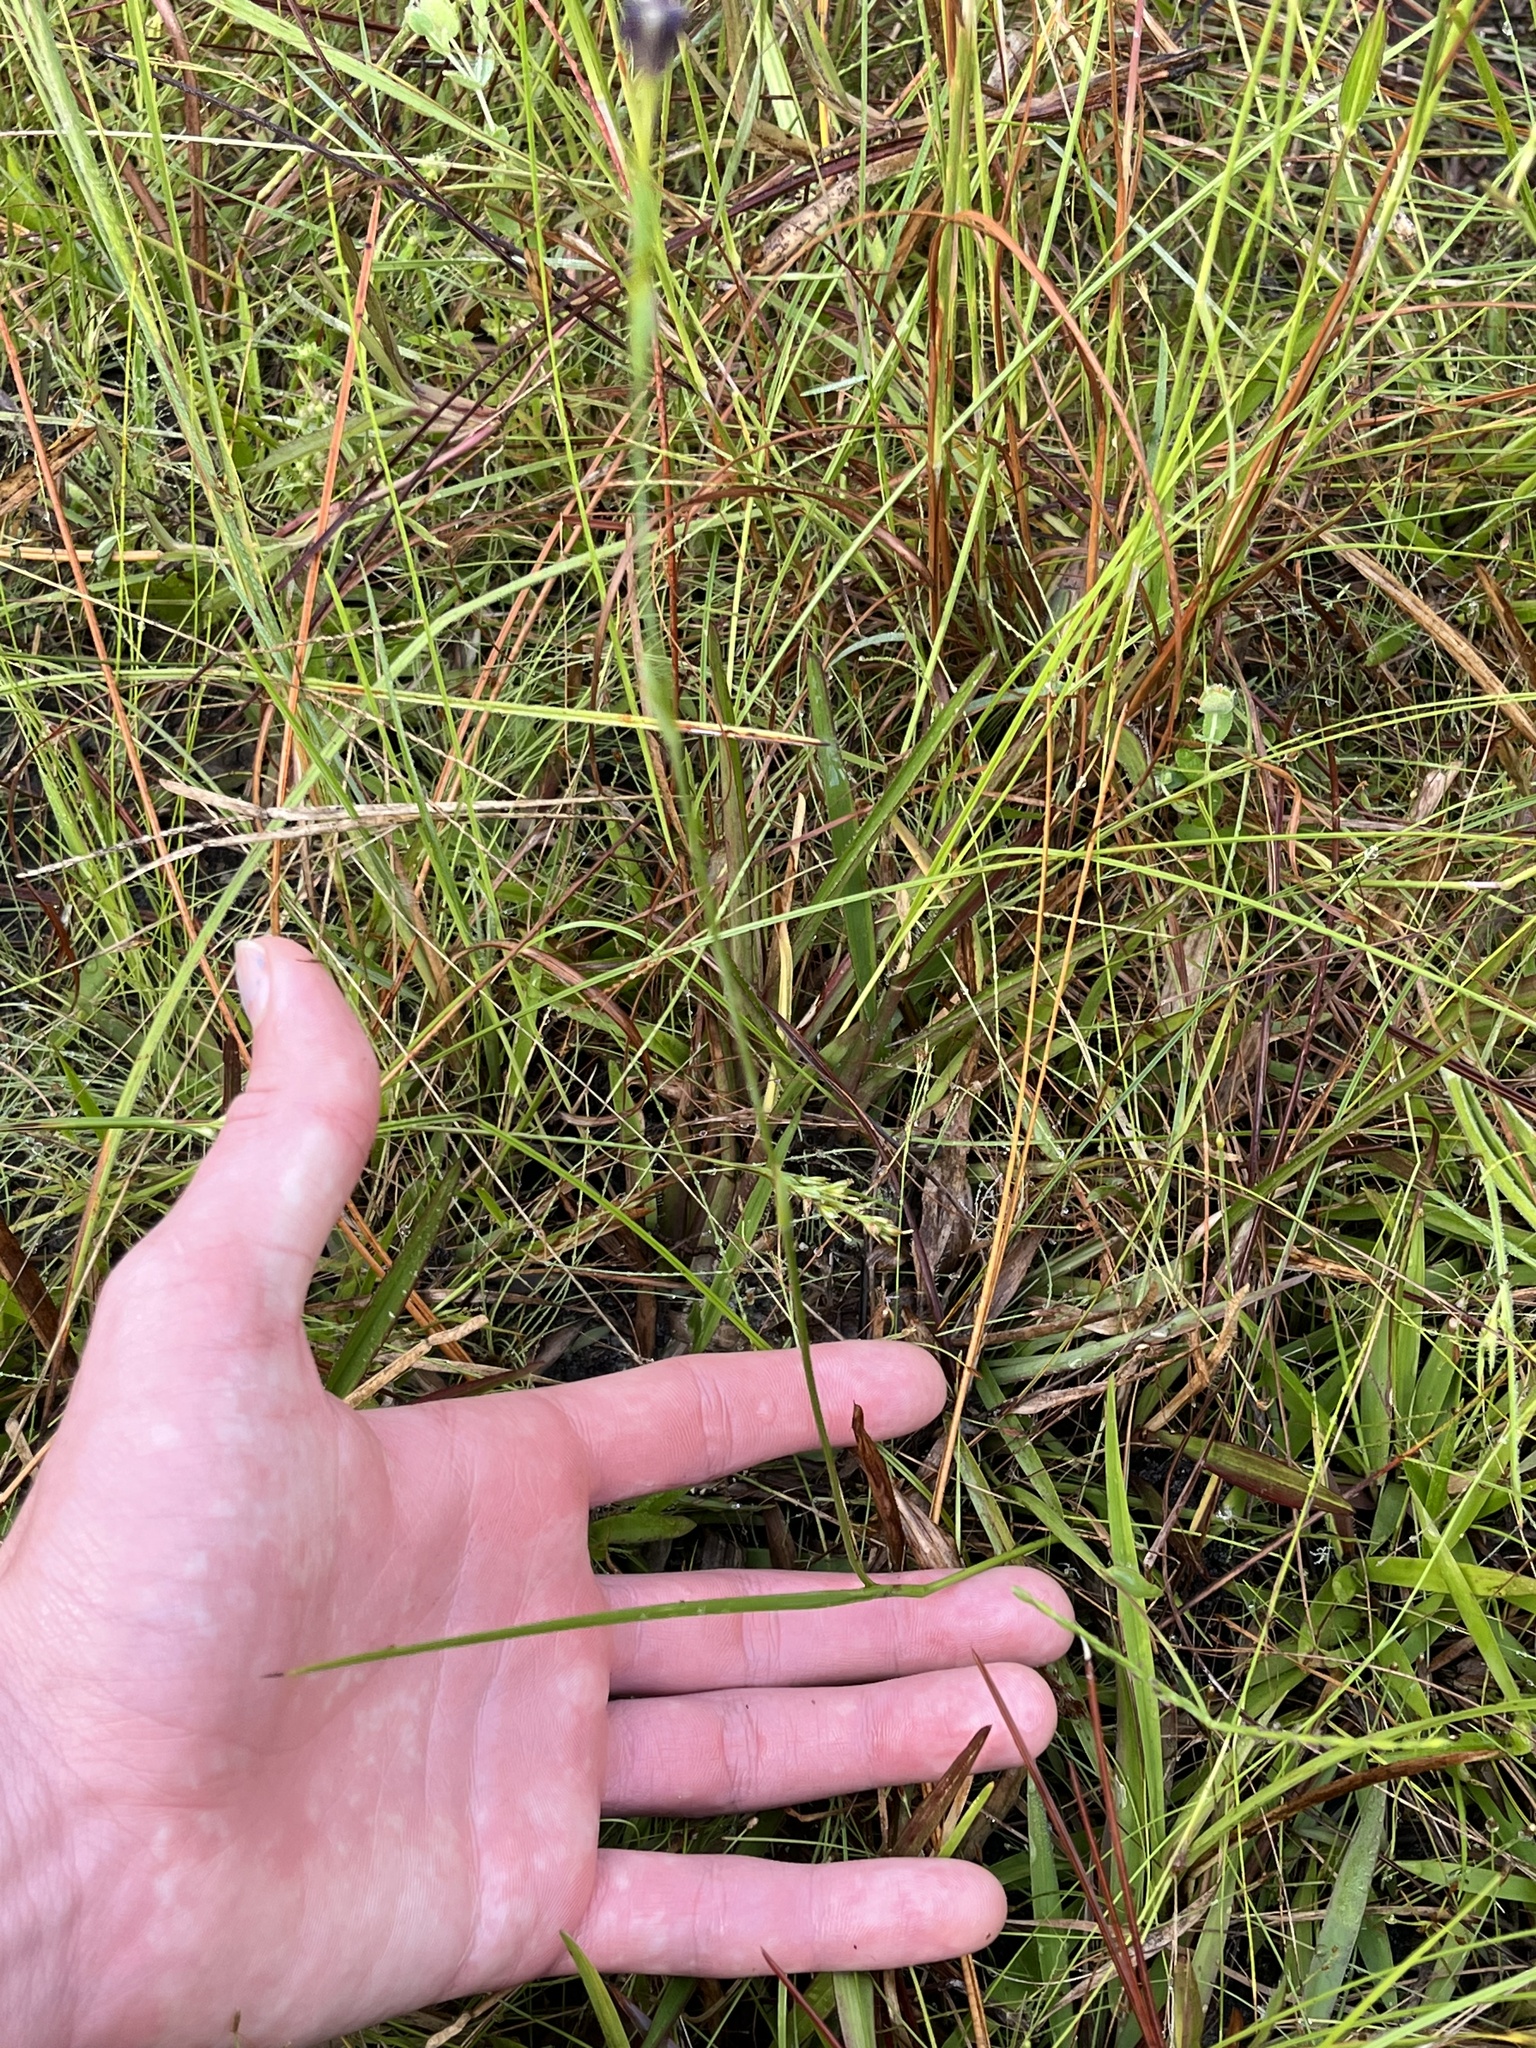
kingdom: Plantae
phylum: Tracheophyta
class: Liliopsida
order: Asparagales
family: Iridaceae
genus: Nemastylis
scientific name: Nemastylis floridana
